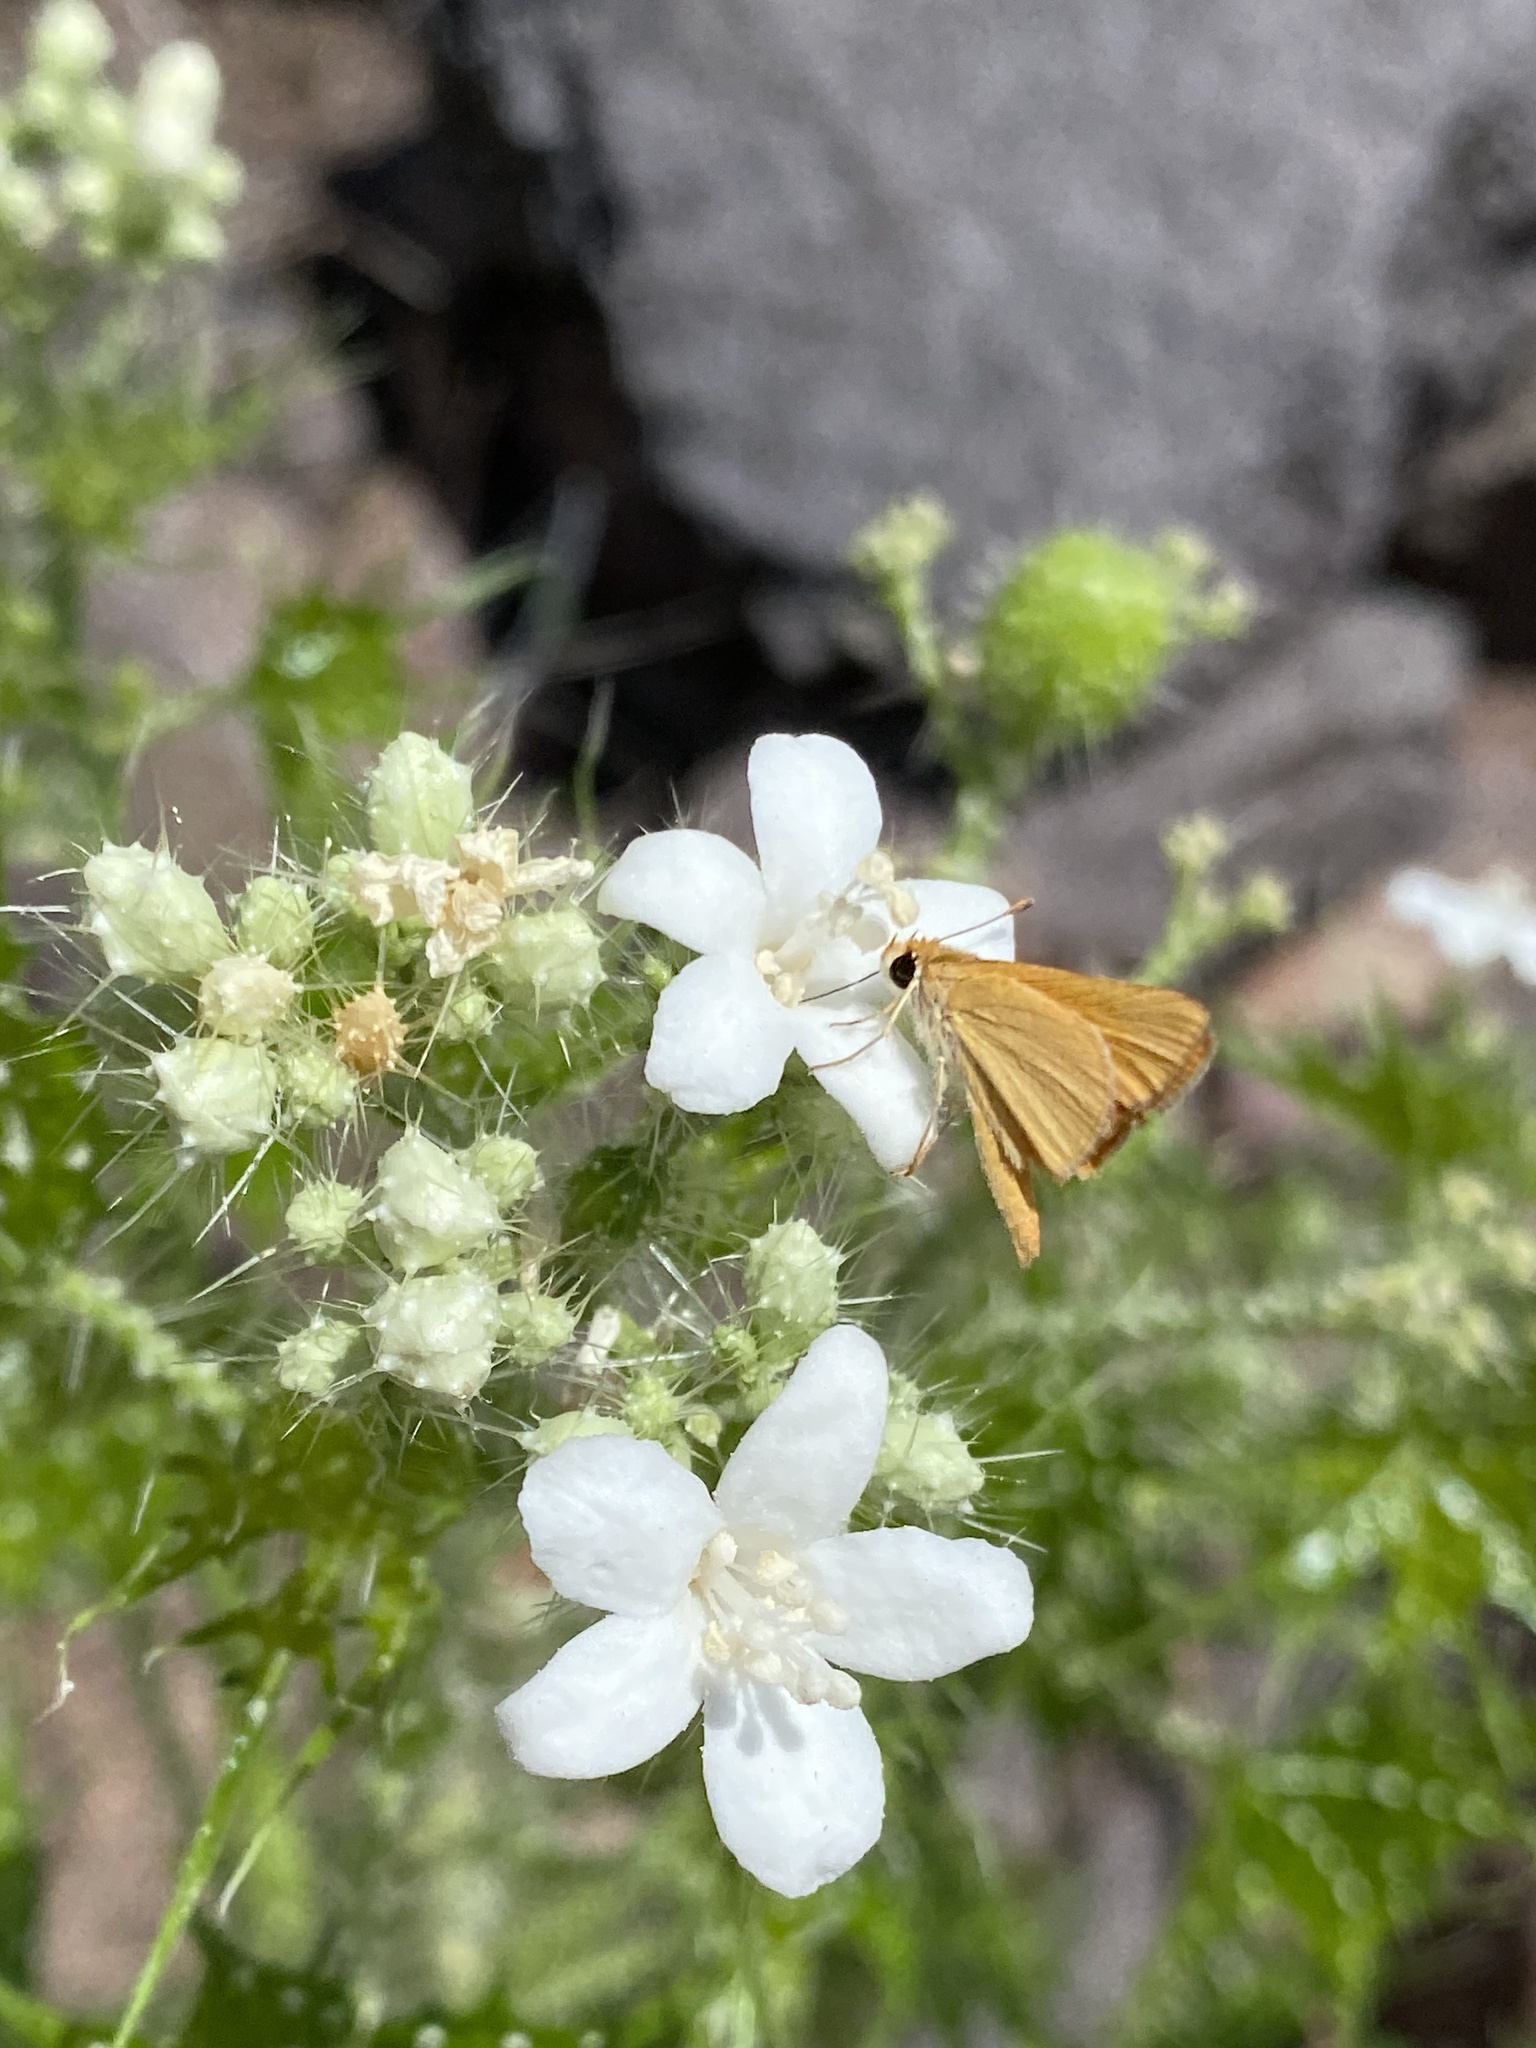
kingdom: Plantae
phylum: Tracheophyta
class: Magnoliopsida
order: Malpighiales
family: Euphorbiaceae
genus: Cnidoscolus
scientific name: Cnidoscolus angustidens
